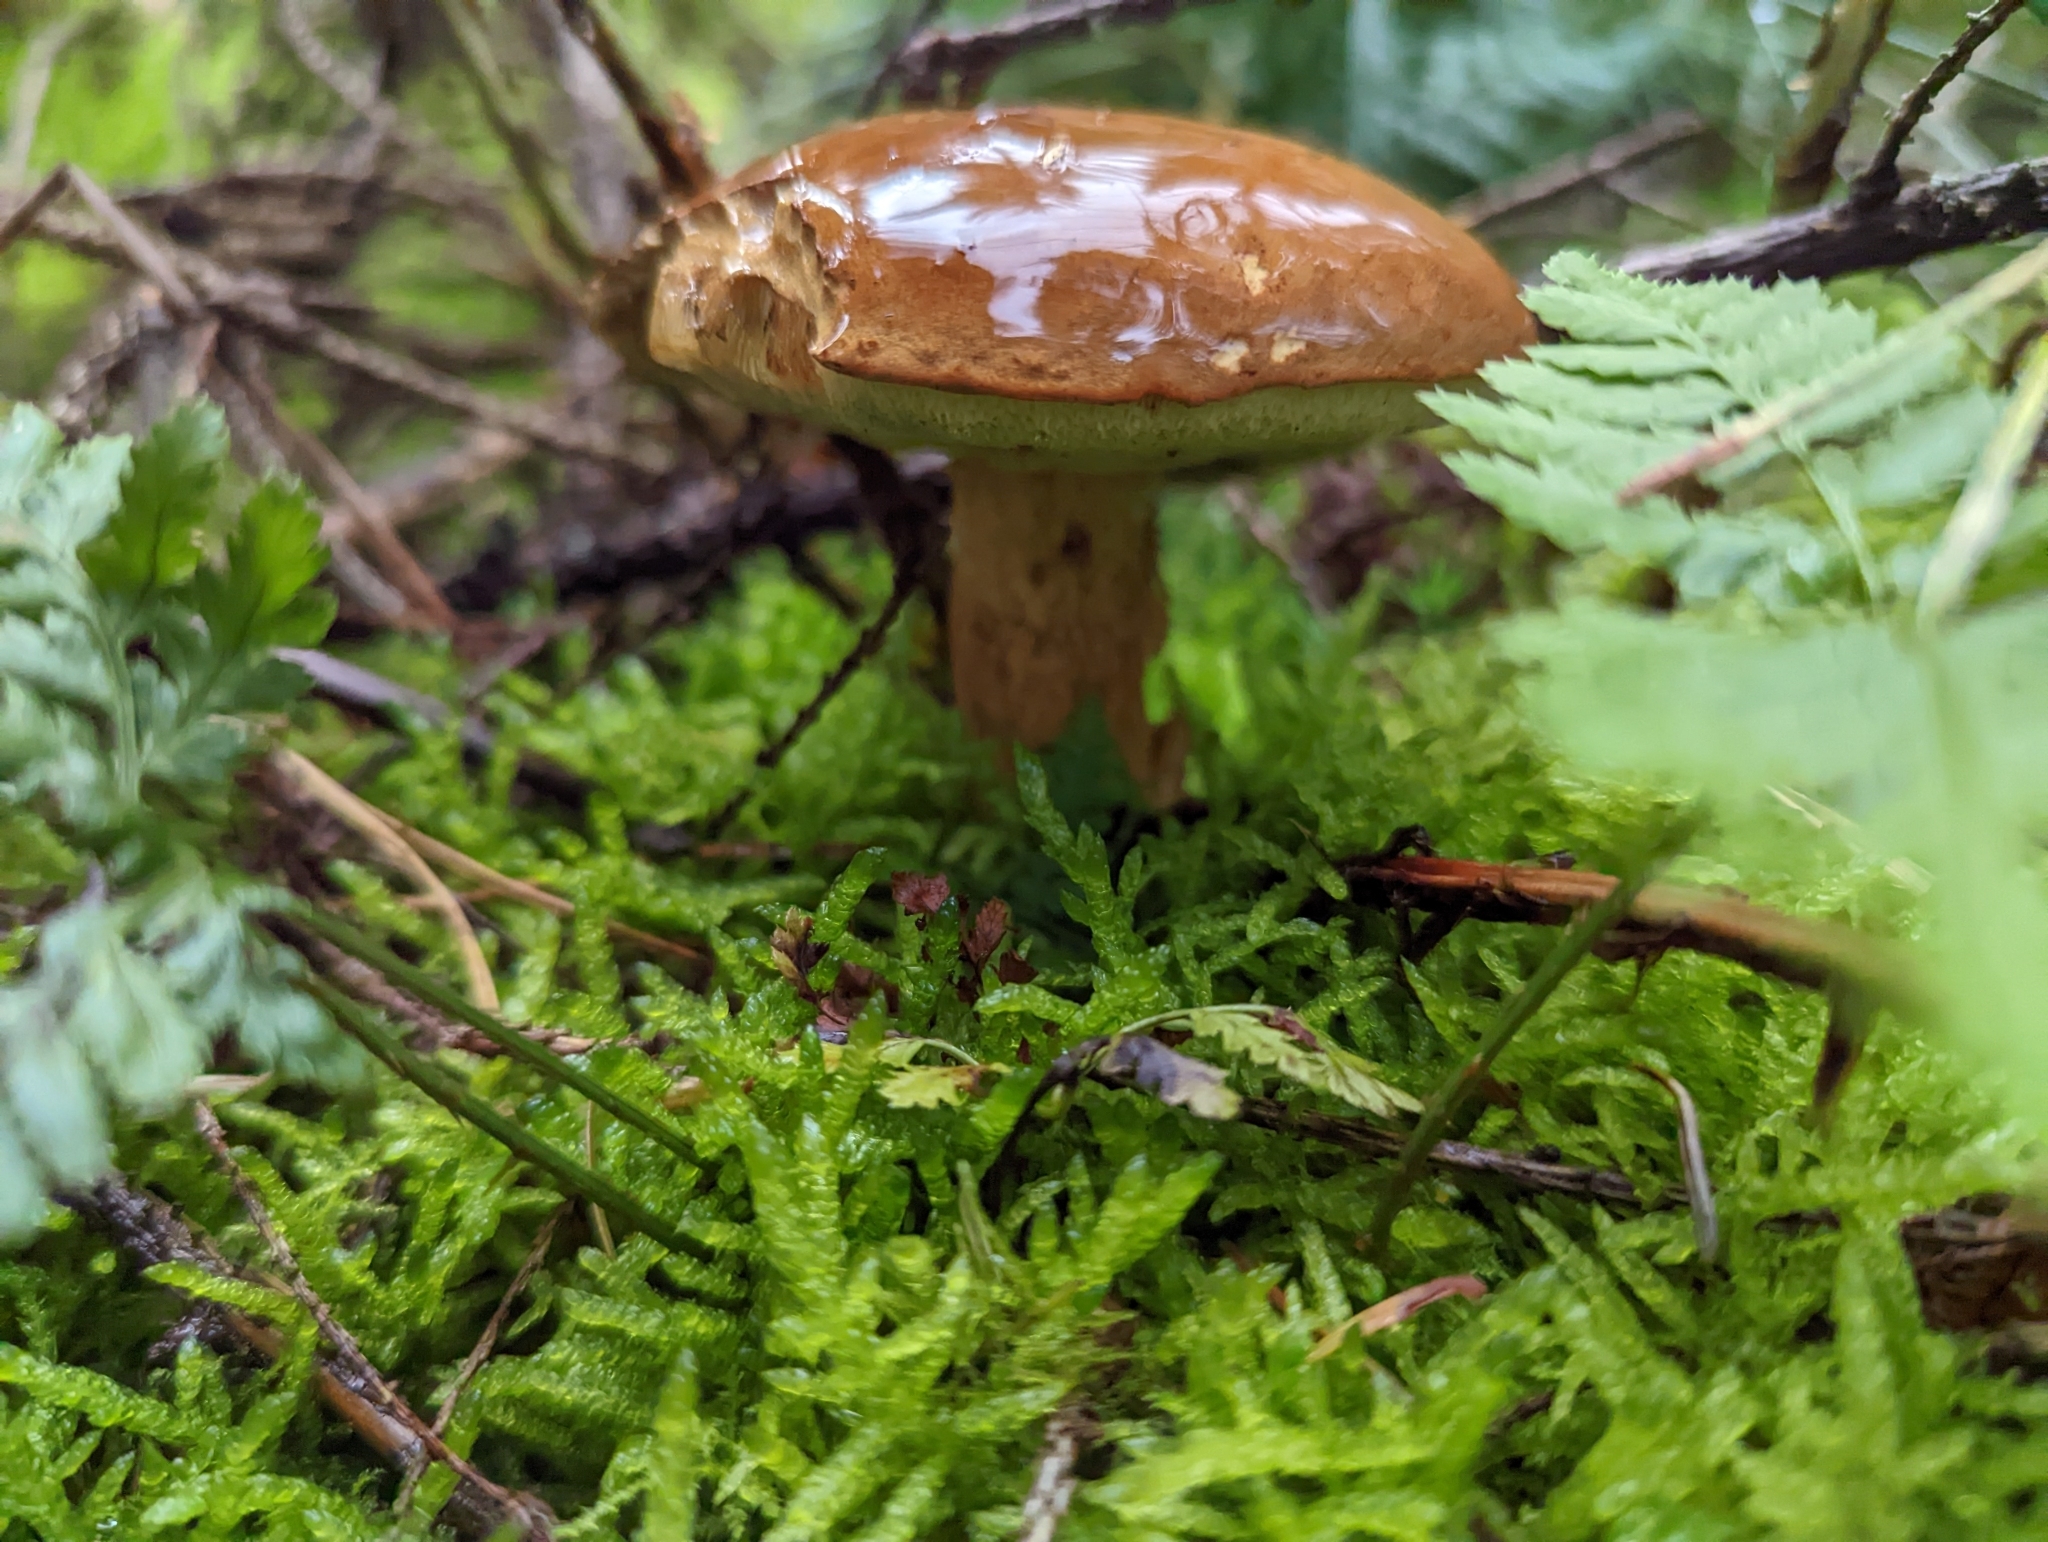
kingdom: Fungi
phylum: Basidiomycota
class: Agaricomycetes
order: Boletales
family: Boletaceae
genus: Imleria
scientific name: Imleria badia
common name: Bay bolete
